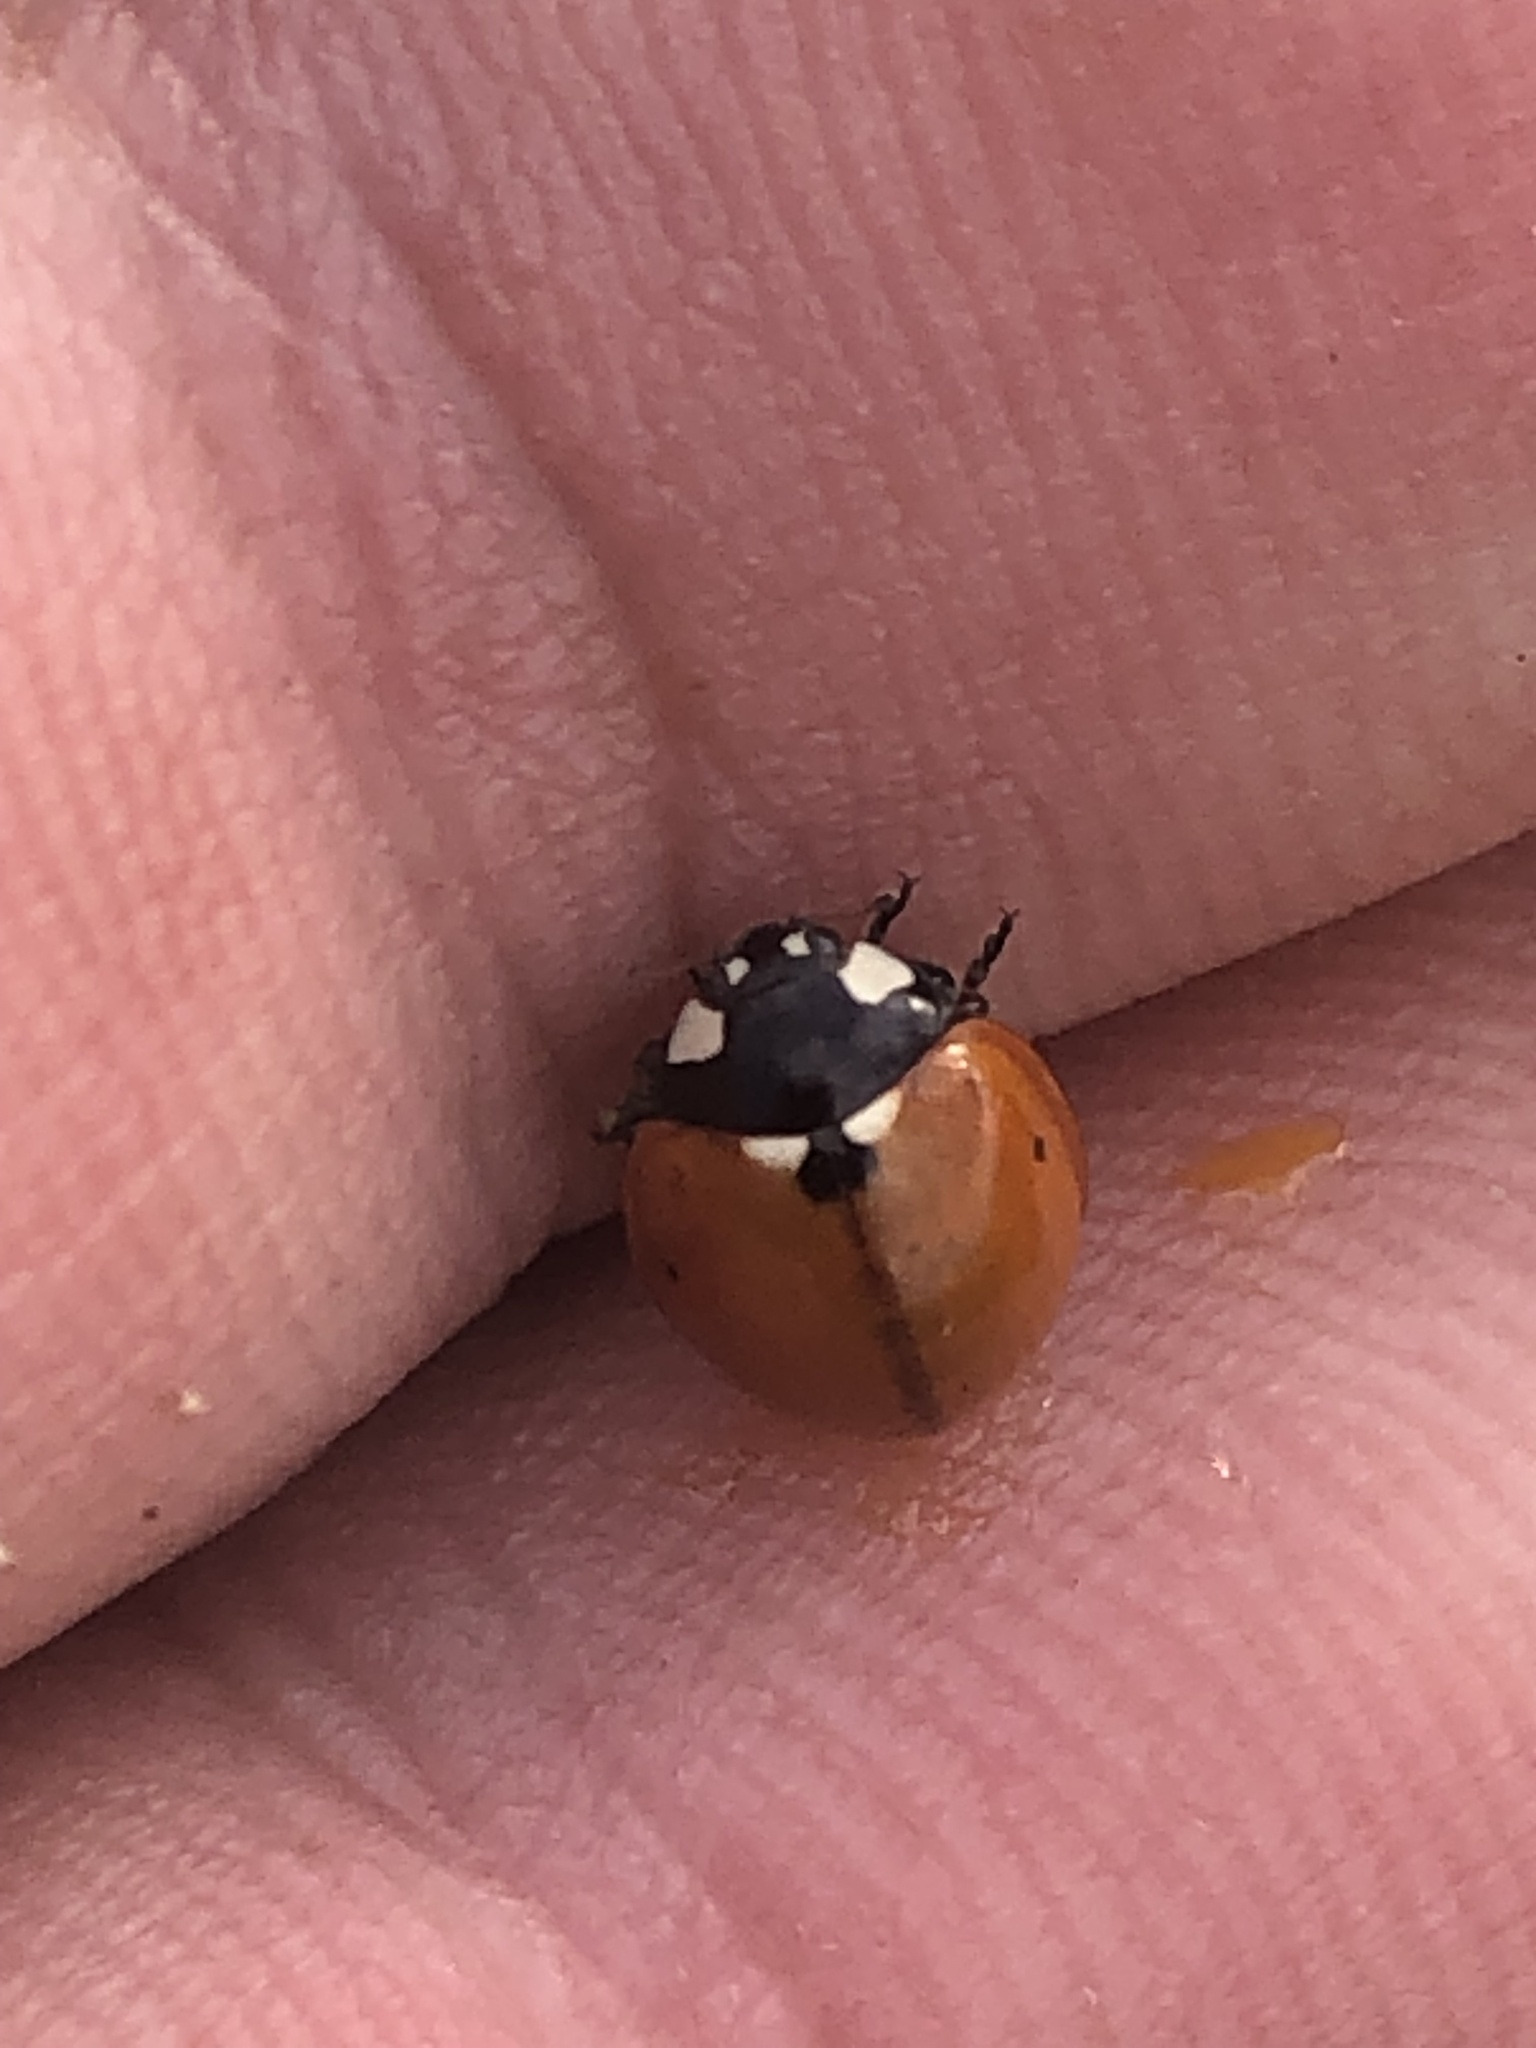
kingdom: Animalia
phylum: Arthropoda
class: Insecta
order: Coleoptera
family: Coccinellidae
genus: Coccinella
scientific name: Coccinella septempunctata
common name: Sevenspotted lady beetle
